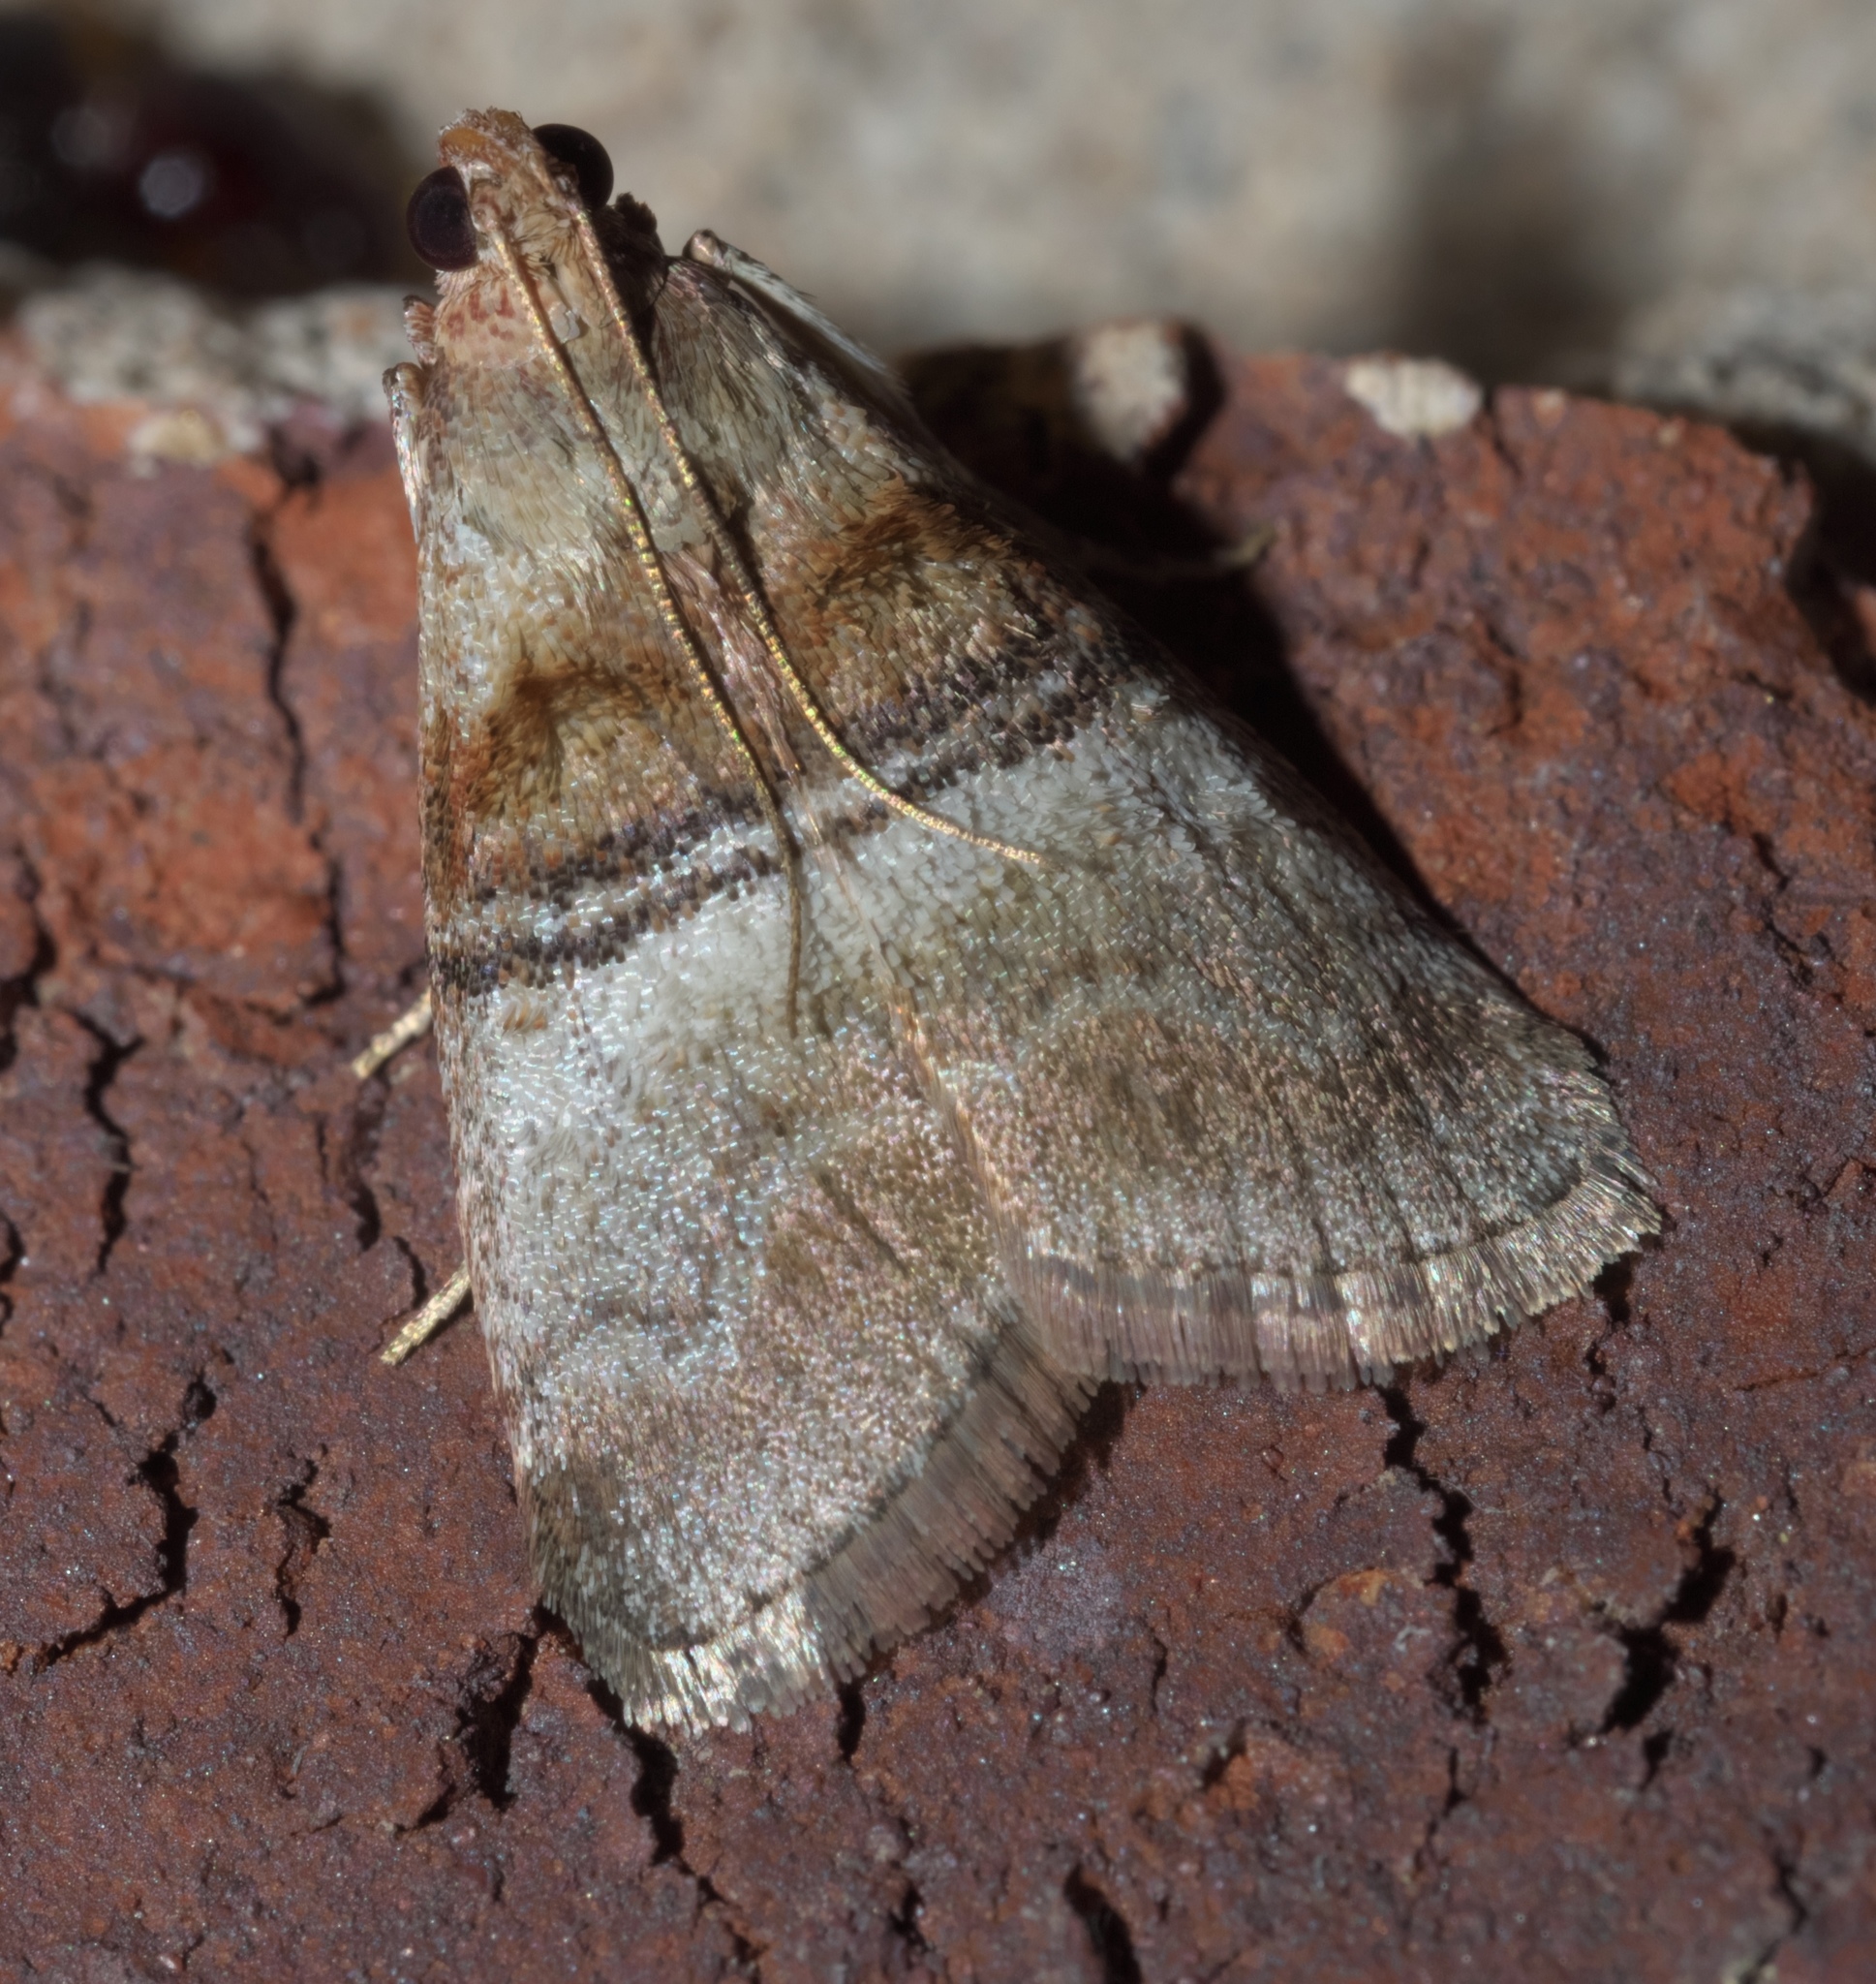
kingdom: Animalia
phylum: Arthropoda
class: Insecta
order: Lepidoptera
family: Pyralidae
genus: Pococera
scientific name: Pococera militella
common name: Sycamore webworm moth
